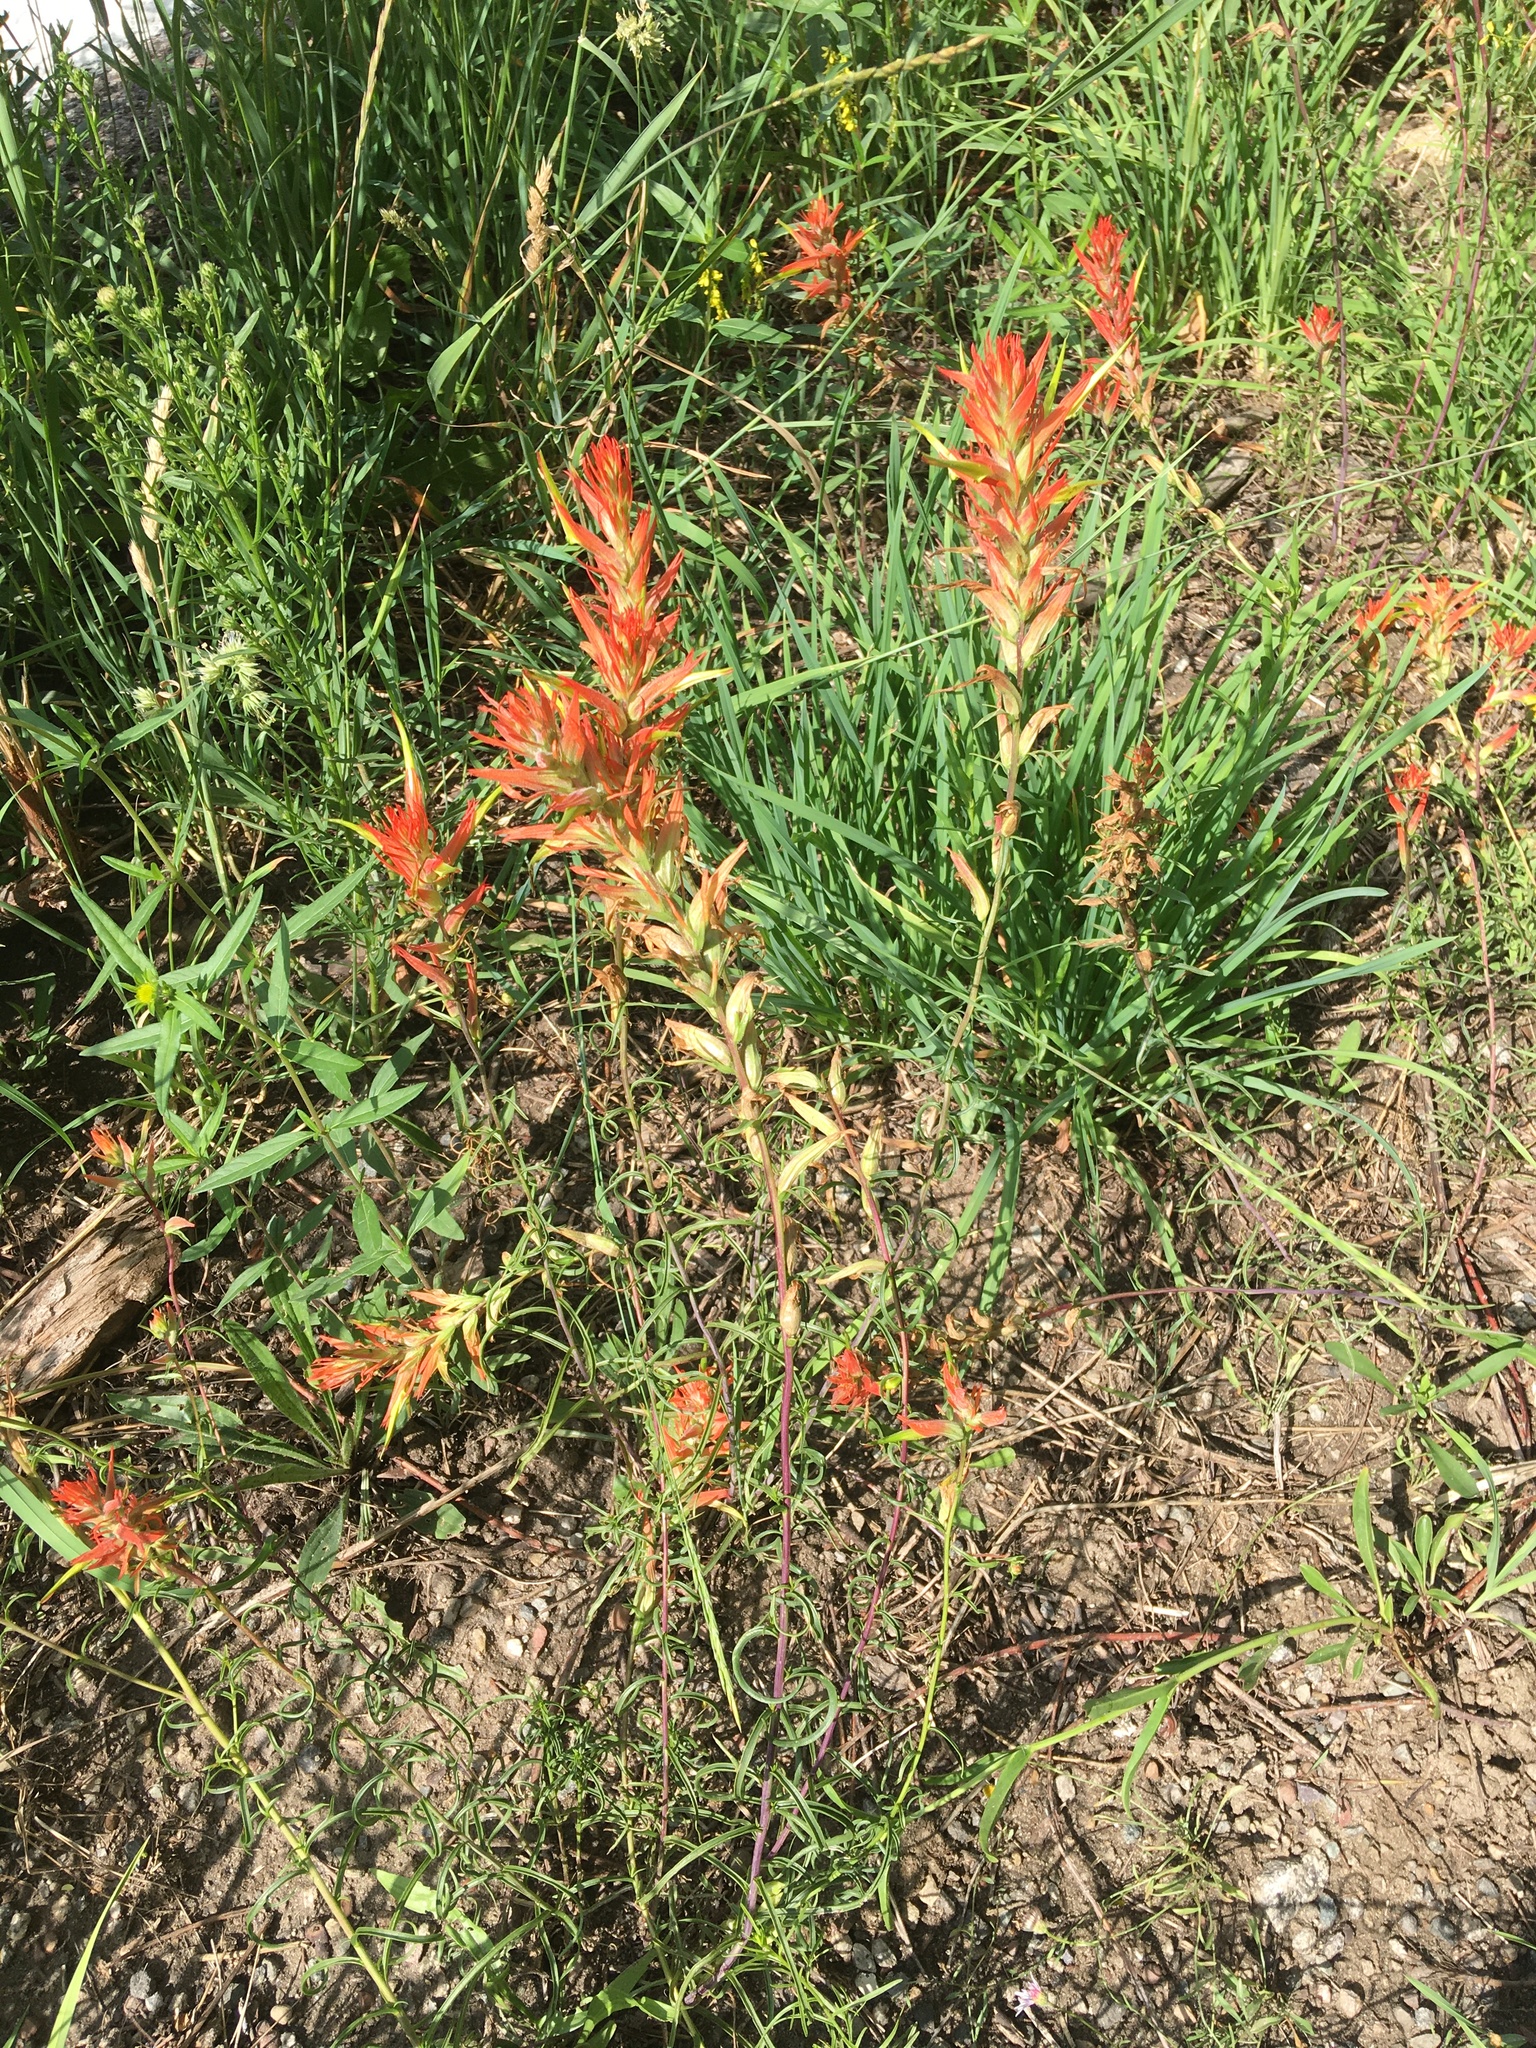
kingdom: Plantae
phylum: Tracheophyta
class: Magnoliopsida
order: Lamiales
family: Orobanchaceae
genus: Castilleja
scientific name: Castilleja linariifolia
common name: Wyoming paintbrush
